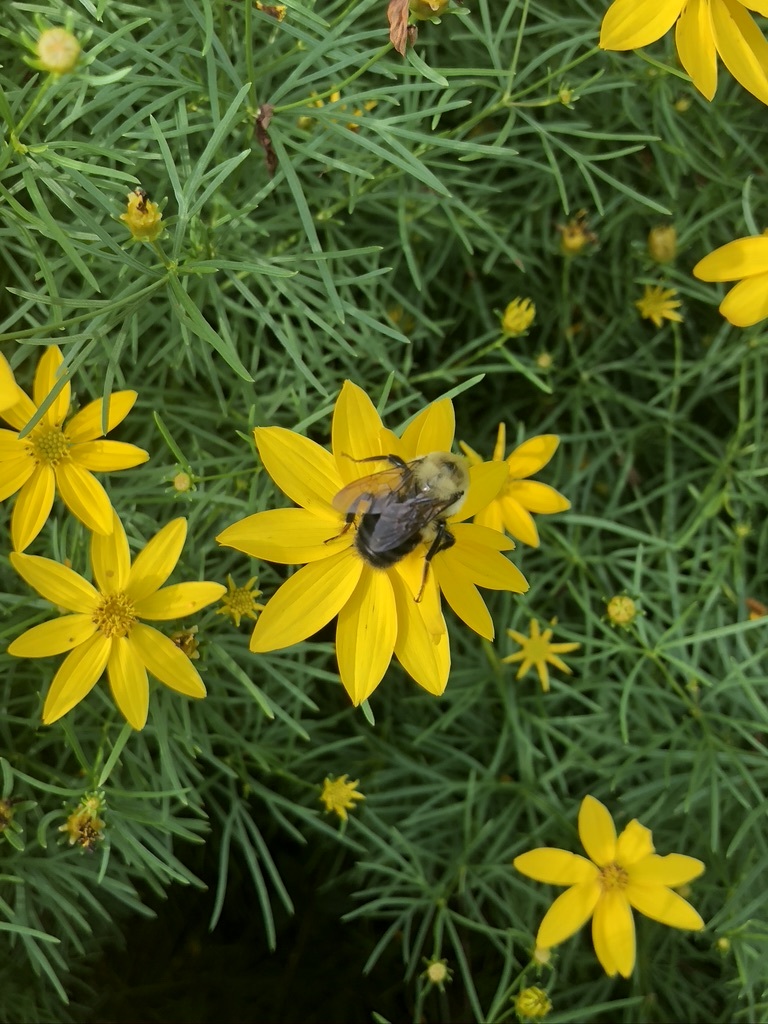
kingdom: Animalia
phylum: Arthropoda
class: Insecta
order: Hymenoptera
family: Apidae
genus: Bombus
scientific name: Bombus griseocollis
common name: Brown-belted bumble bee
